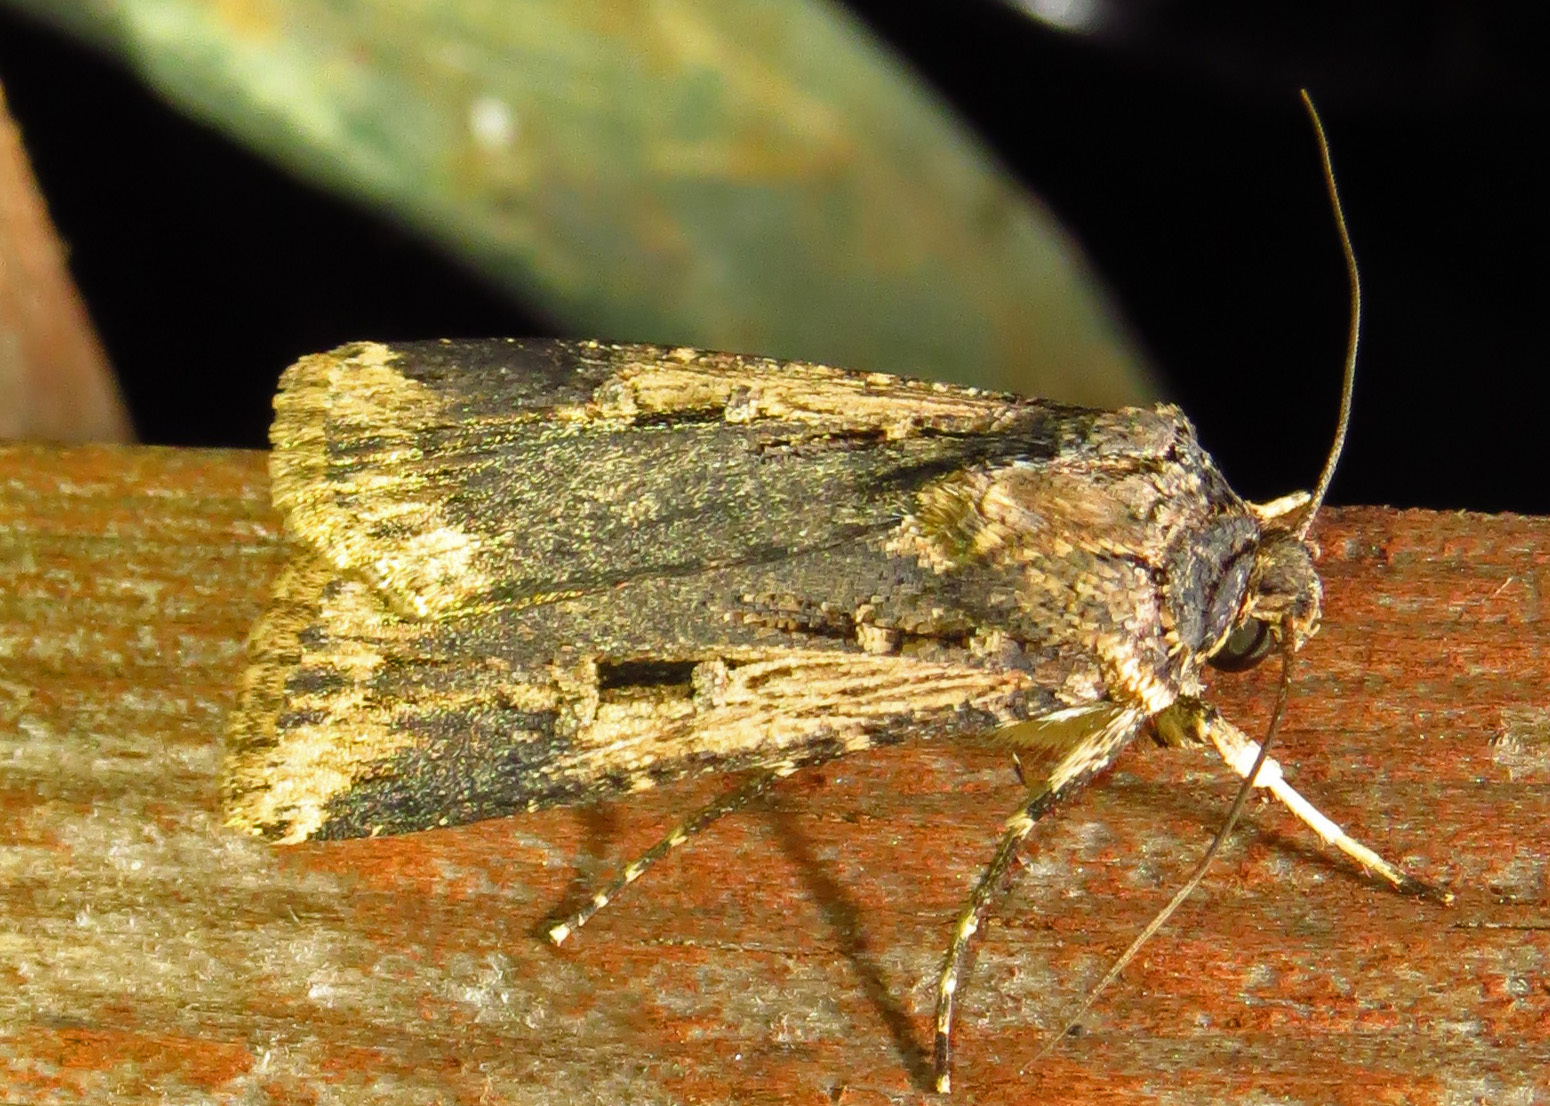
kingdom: Animalia
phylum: Arthropoda
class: Insecta
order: Lepidoptera
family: Noctuidae
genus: Feltia
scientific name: Feltia subterranea
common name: Granulate cutworm
